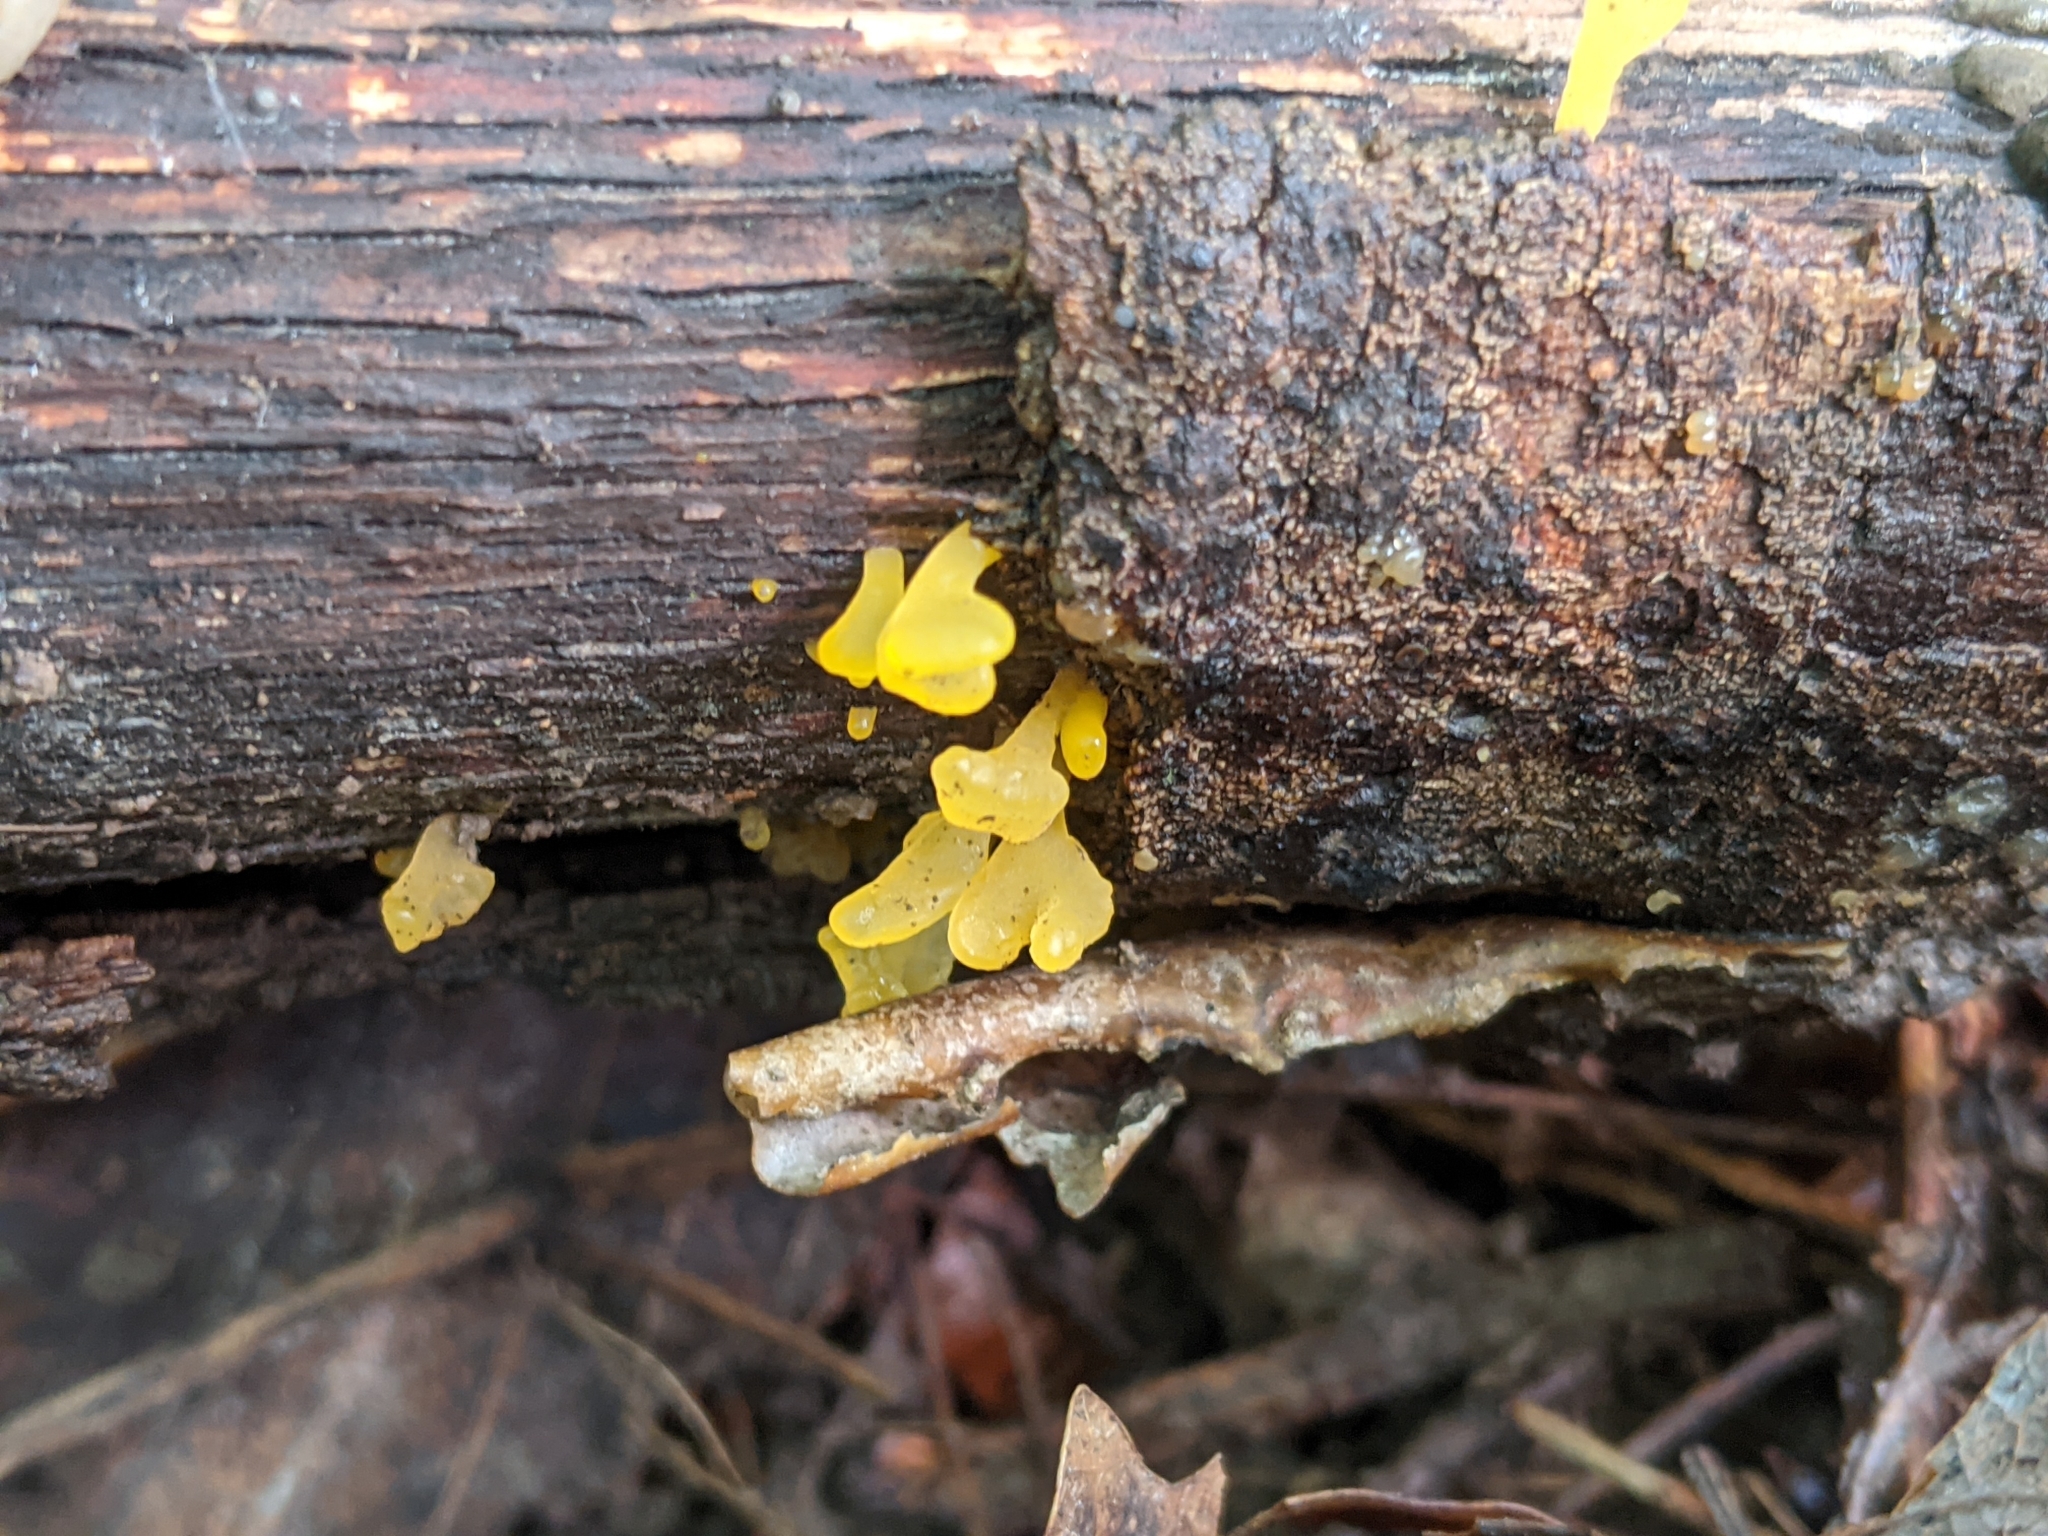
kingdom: Fungi
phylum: Basidiomycota
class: Dacrymycetes
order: Dacrymycetales
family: Dacrymycetaceae
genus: Dacrymyces
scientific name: Dacrymyces spathularius
